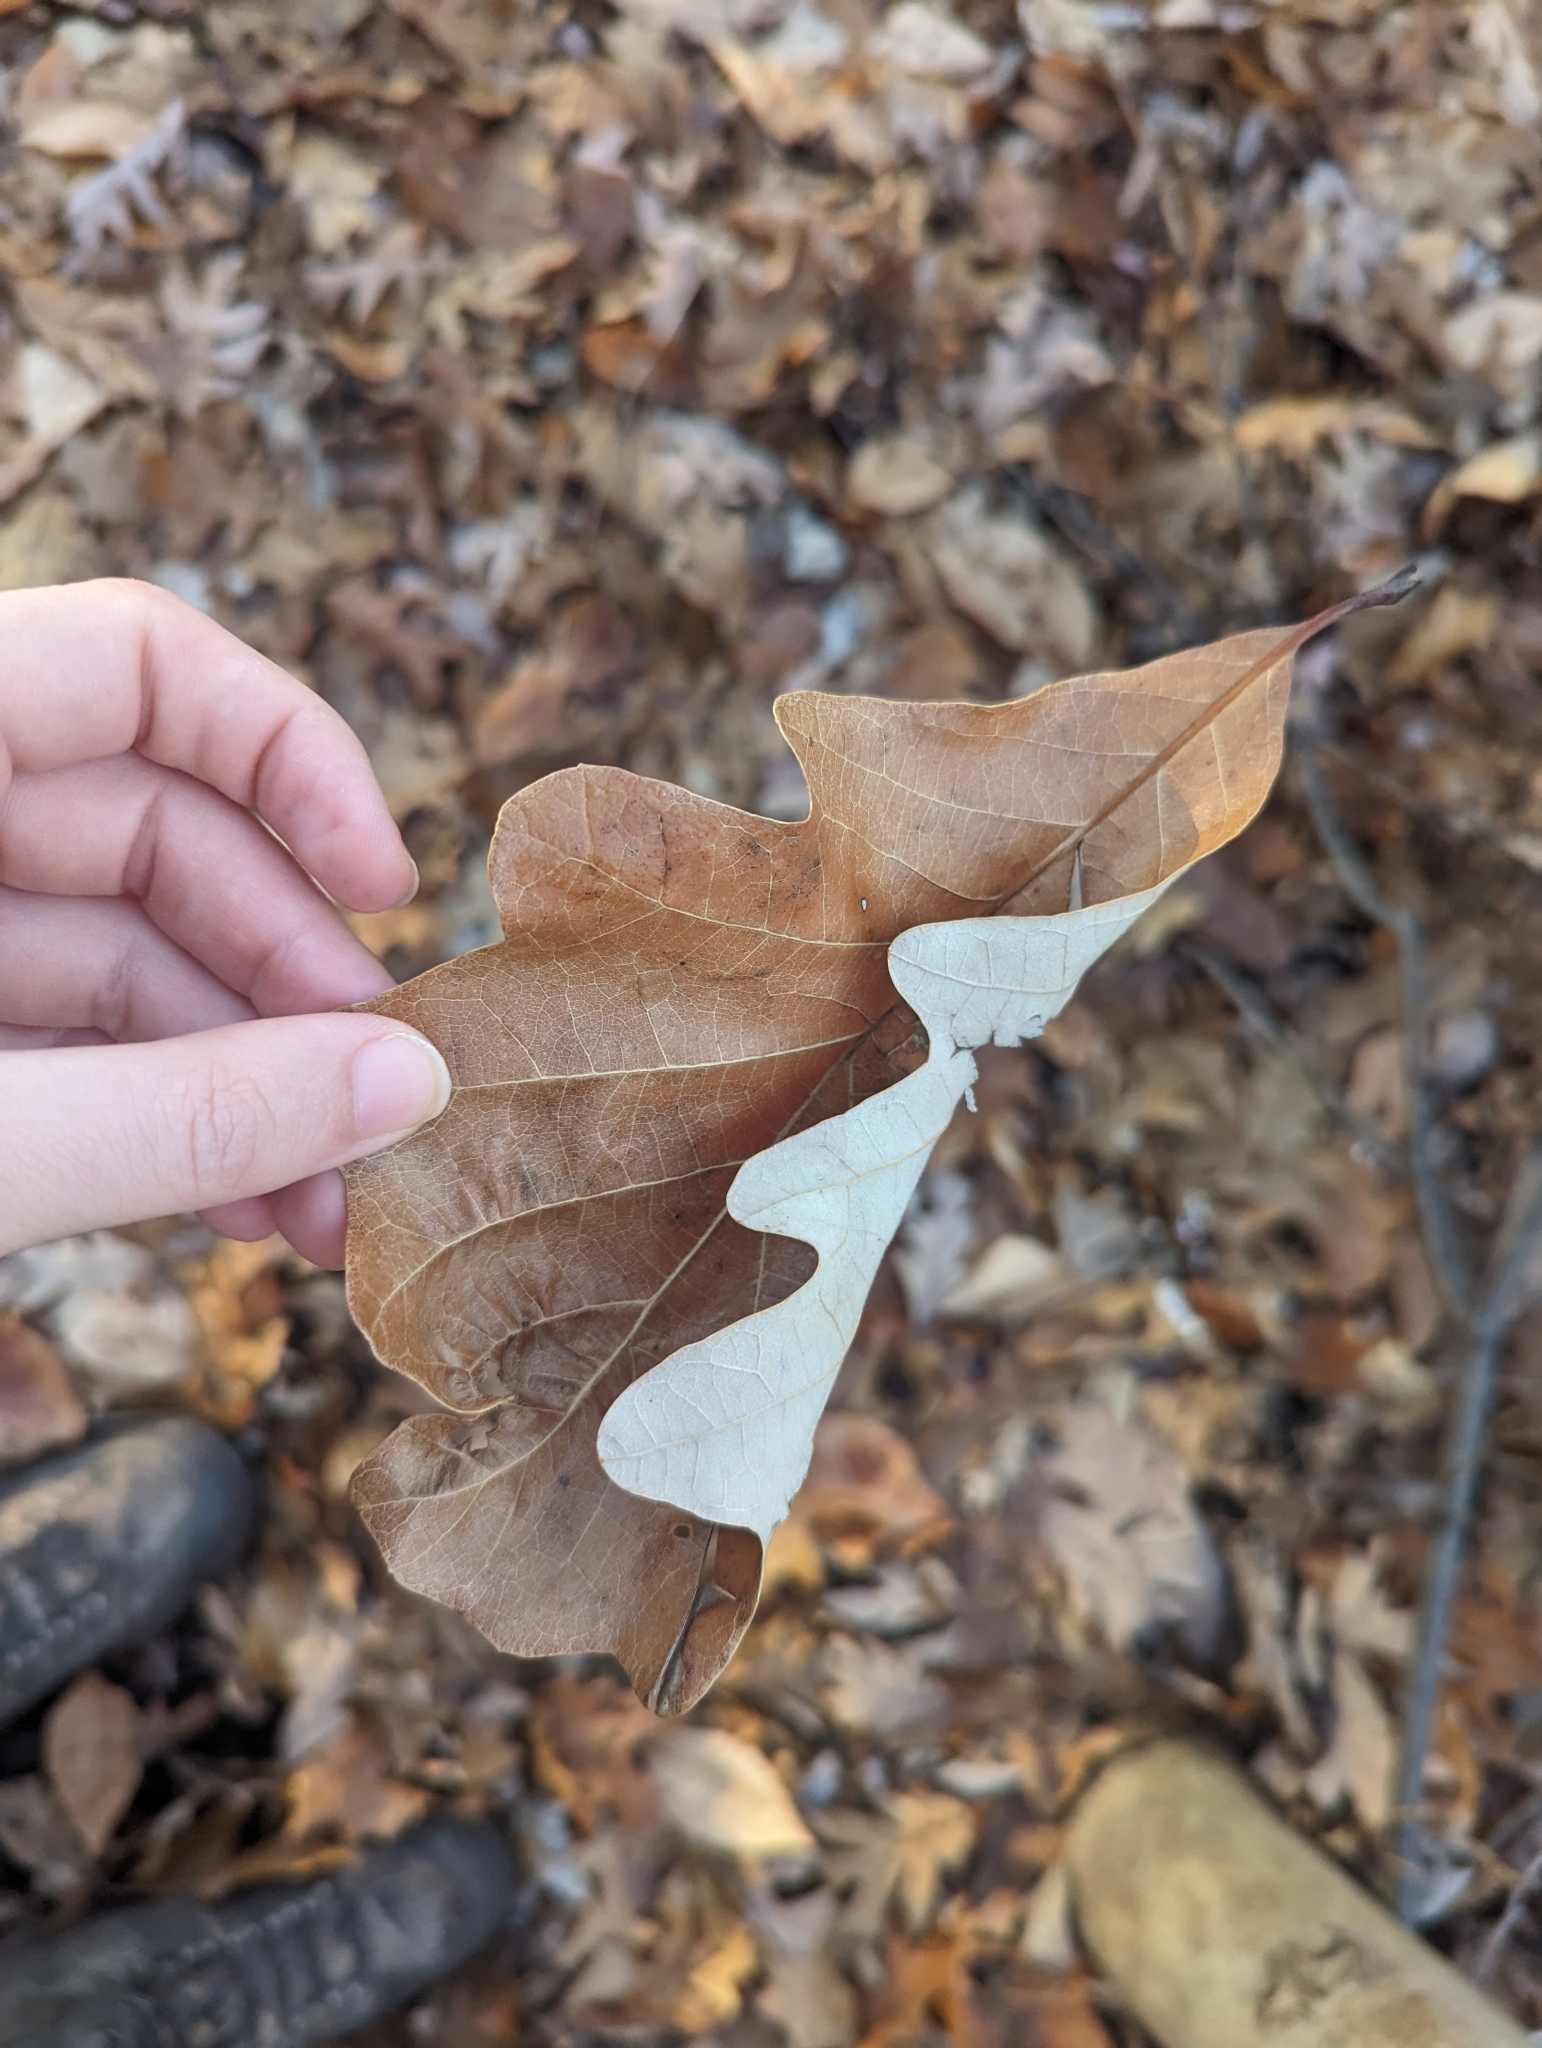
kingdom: Plantae
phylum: Tracheophyta
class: Magnoliopsida
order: Fagales
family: Fagaceae
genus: Quercus
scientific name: Quercus bicolor
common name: Swamp white oak
